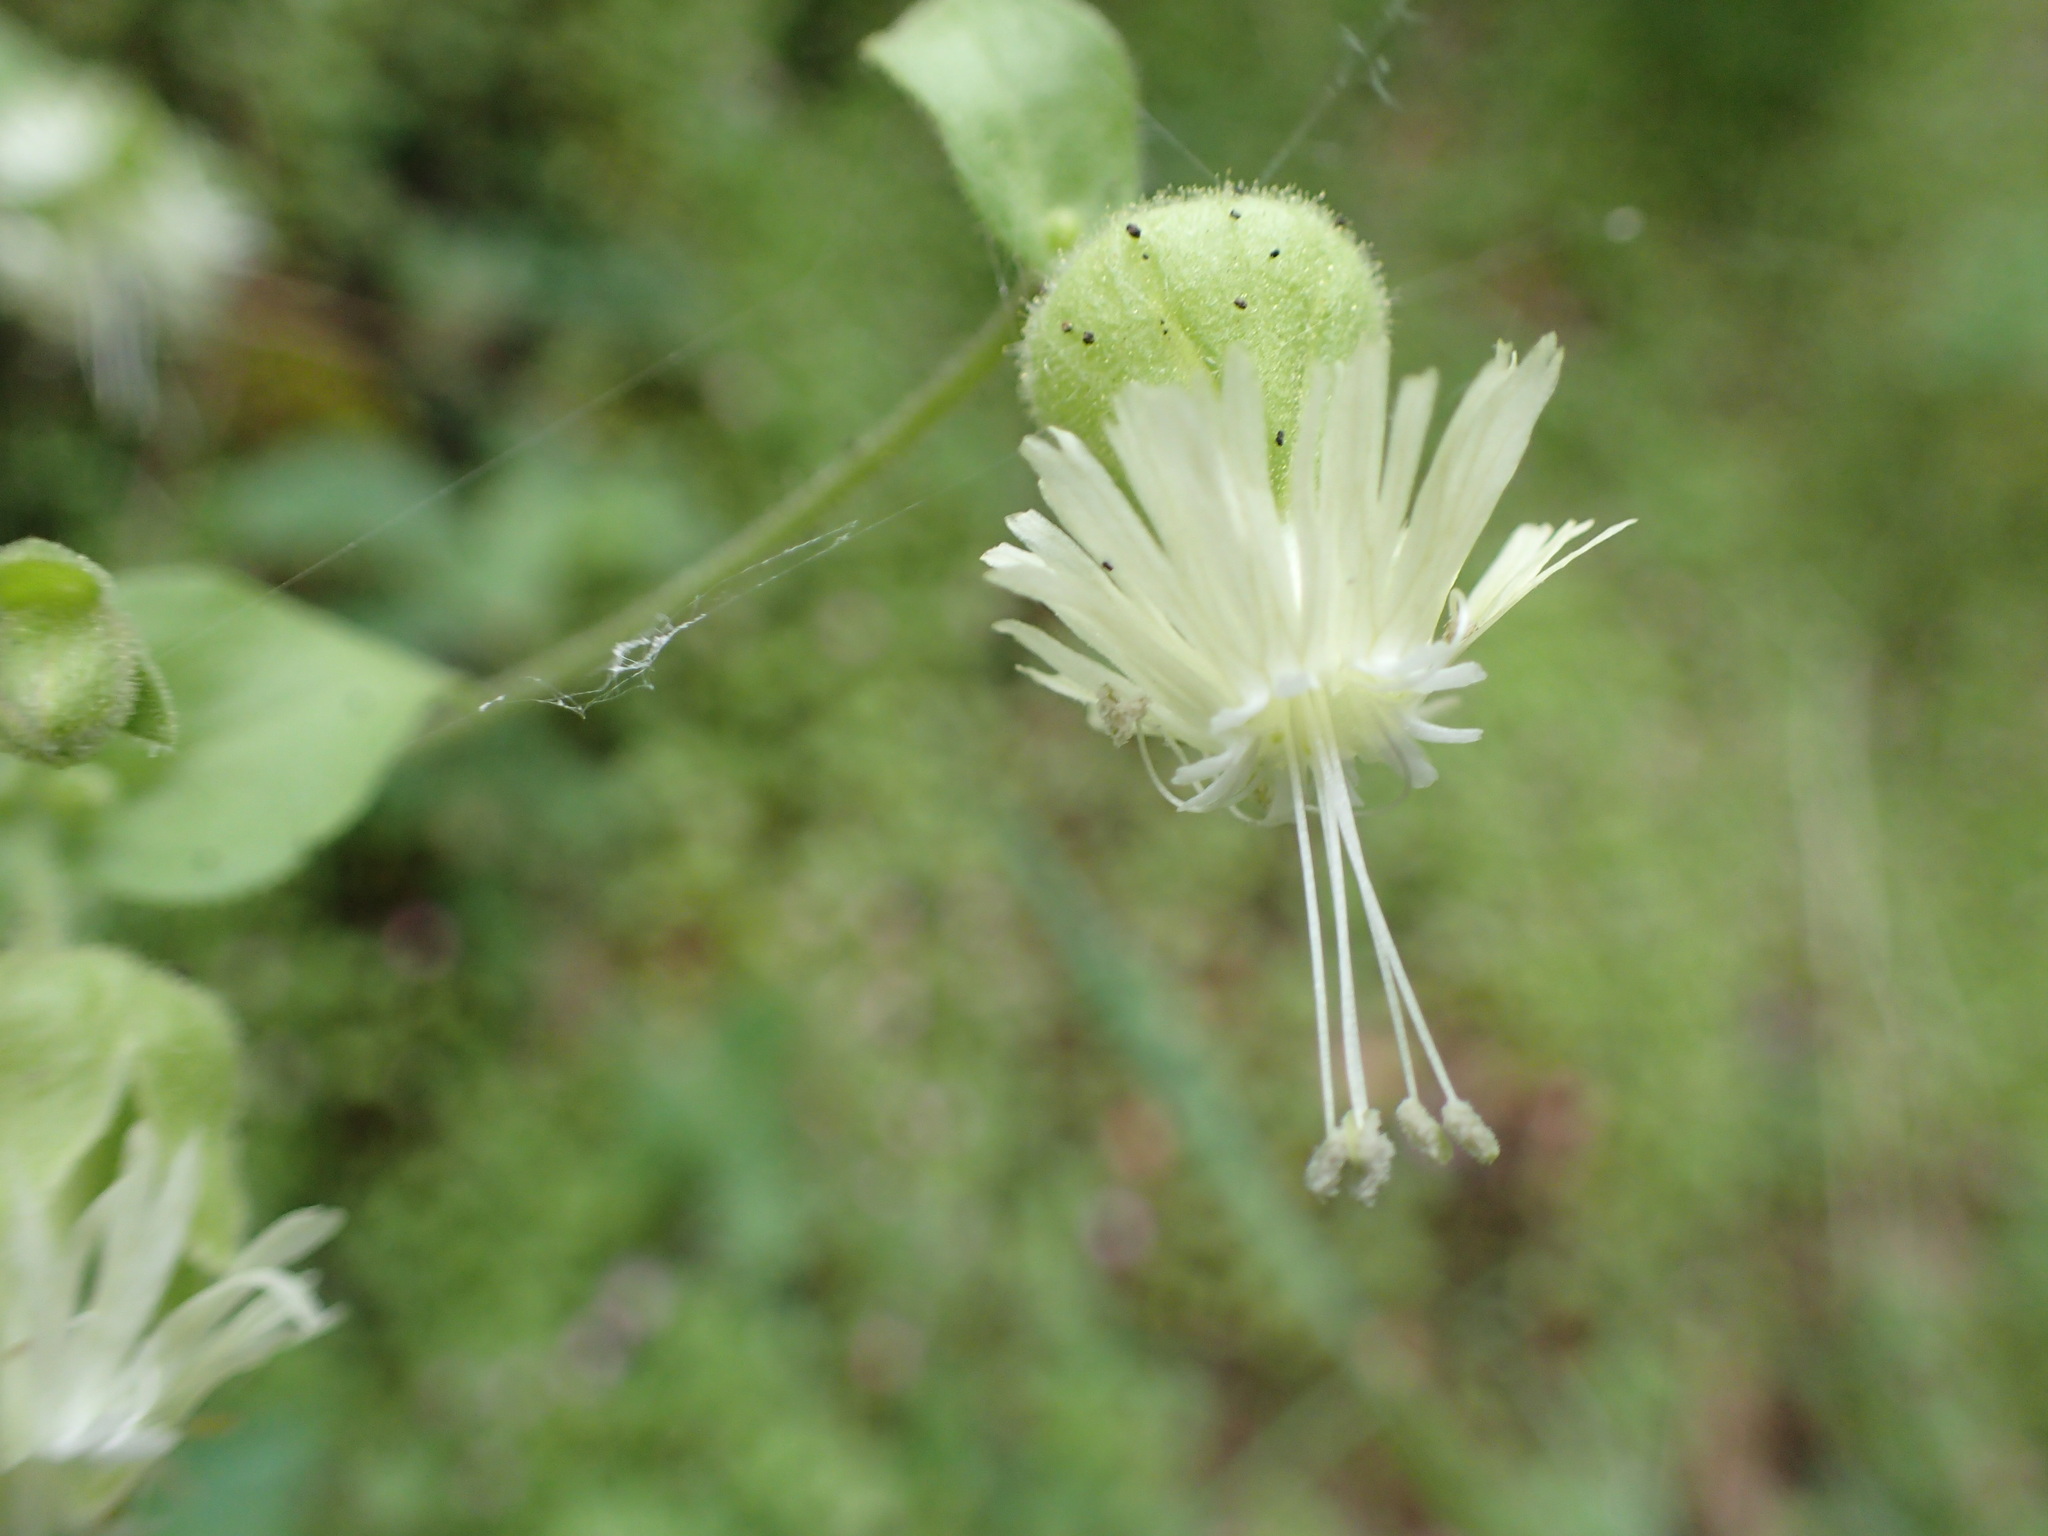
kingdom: Plantae
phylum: Tracheophyta
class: Magnoliopsida
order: Caryophyllales
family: Caryophyllaceae
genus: Silene
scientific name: Silene greenei
